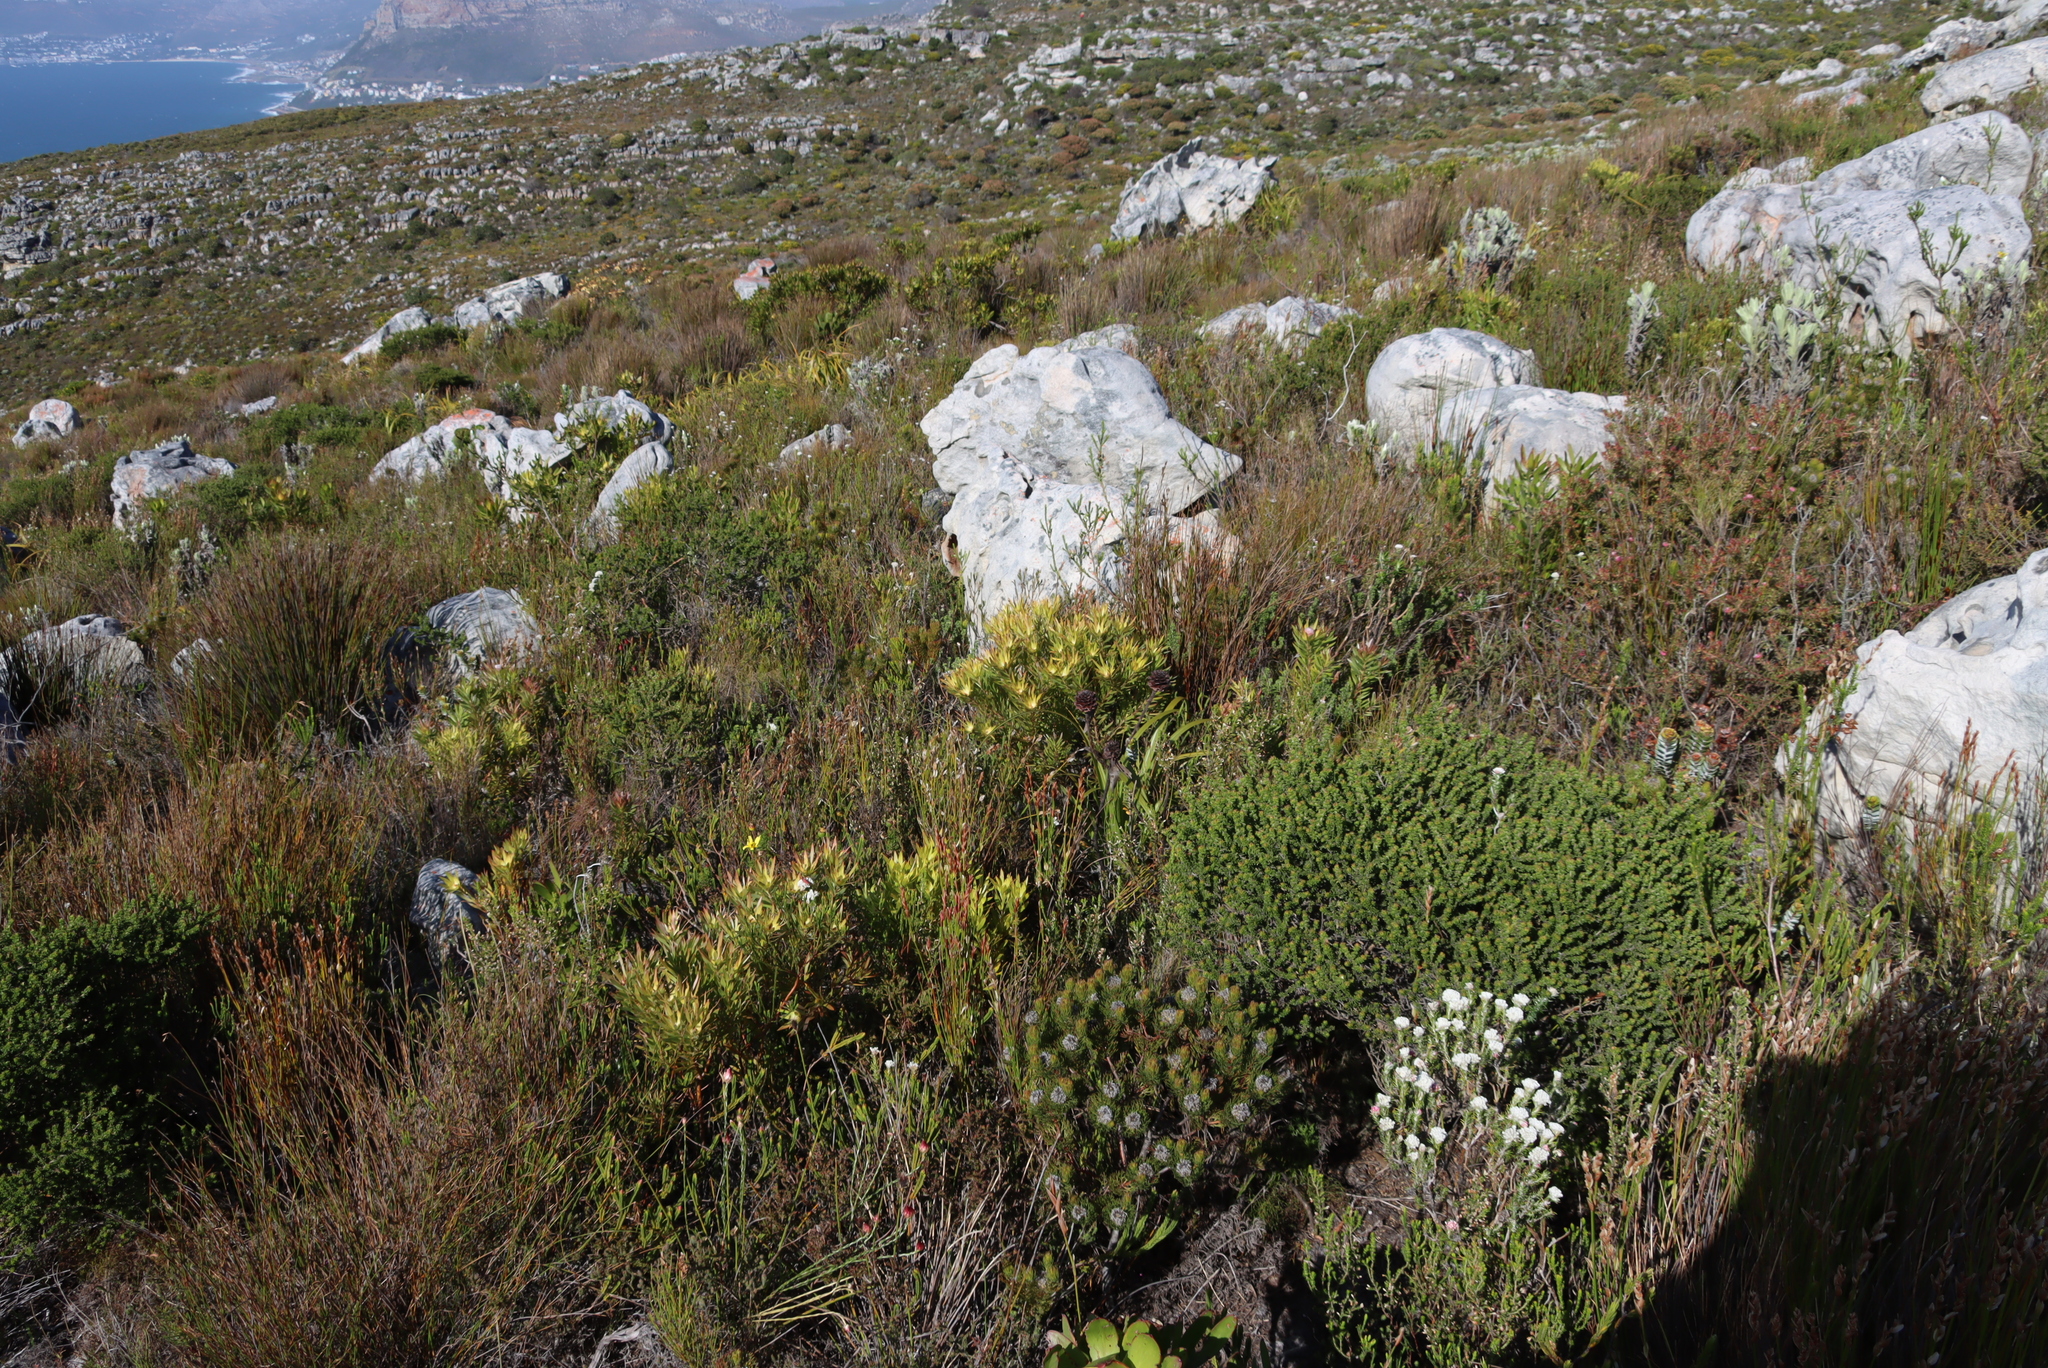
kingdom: Plantae
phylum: Tracheophyta
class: Magnoliopsida
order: Proteales
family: Proteaceae
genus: Leucadendron
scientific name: Leucadendron xanthoconus
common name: Sickle-leaf conebush
